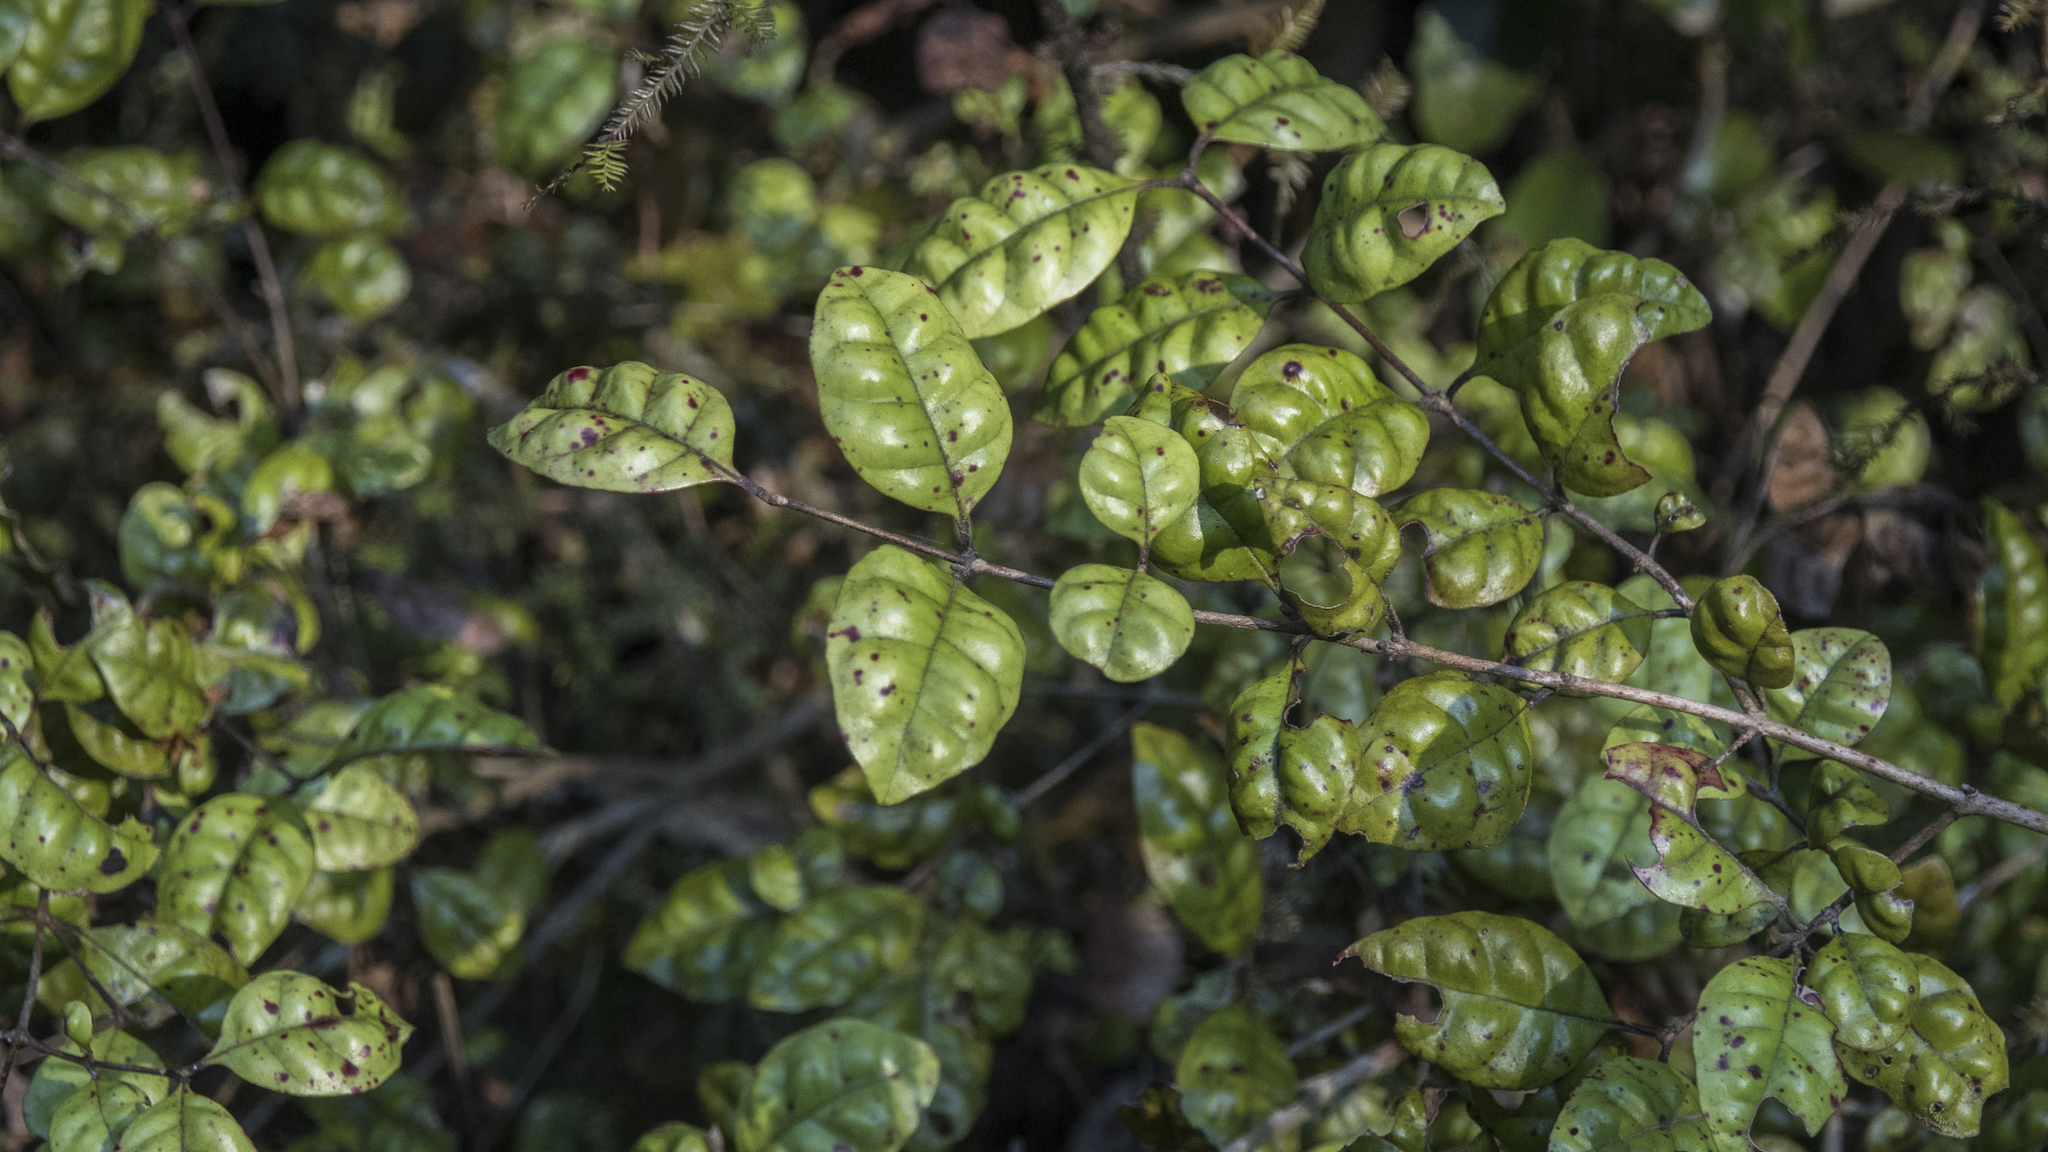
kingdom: Plantae
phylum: Tracheophyta
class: Magnoliopsida
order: Myrtales
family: Myrtaceae
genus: Lophomyrtus
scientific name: Lophomyrtus bullata
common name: Rama rama
